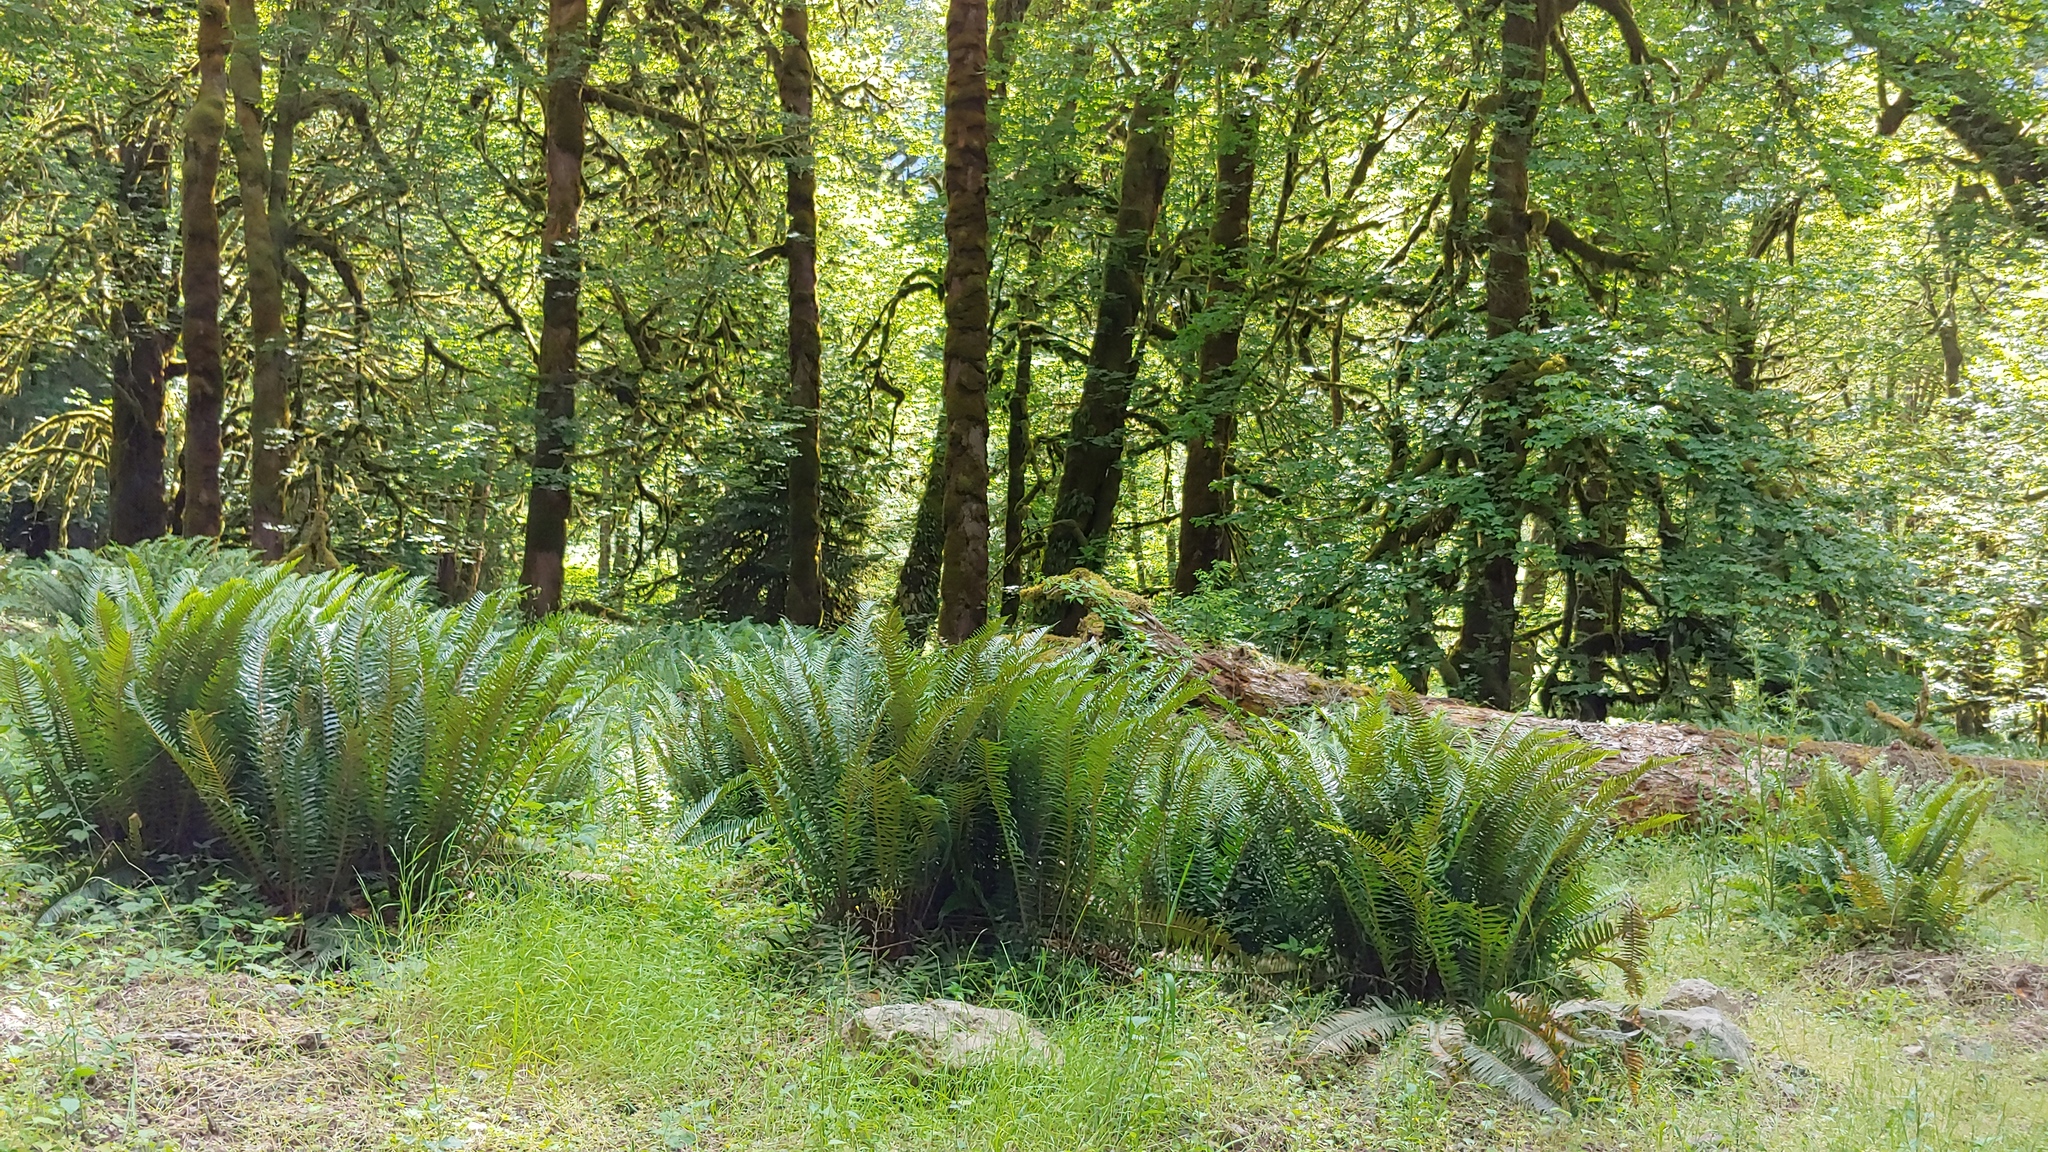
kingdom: Plantae
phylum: Tracheophyta
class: Polypodiopsida
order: Polypodiales
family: Dryopteridaceae
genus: Polystichum
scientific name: Polystichum munitum
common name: Western sword-fern
